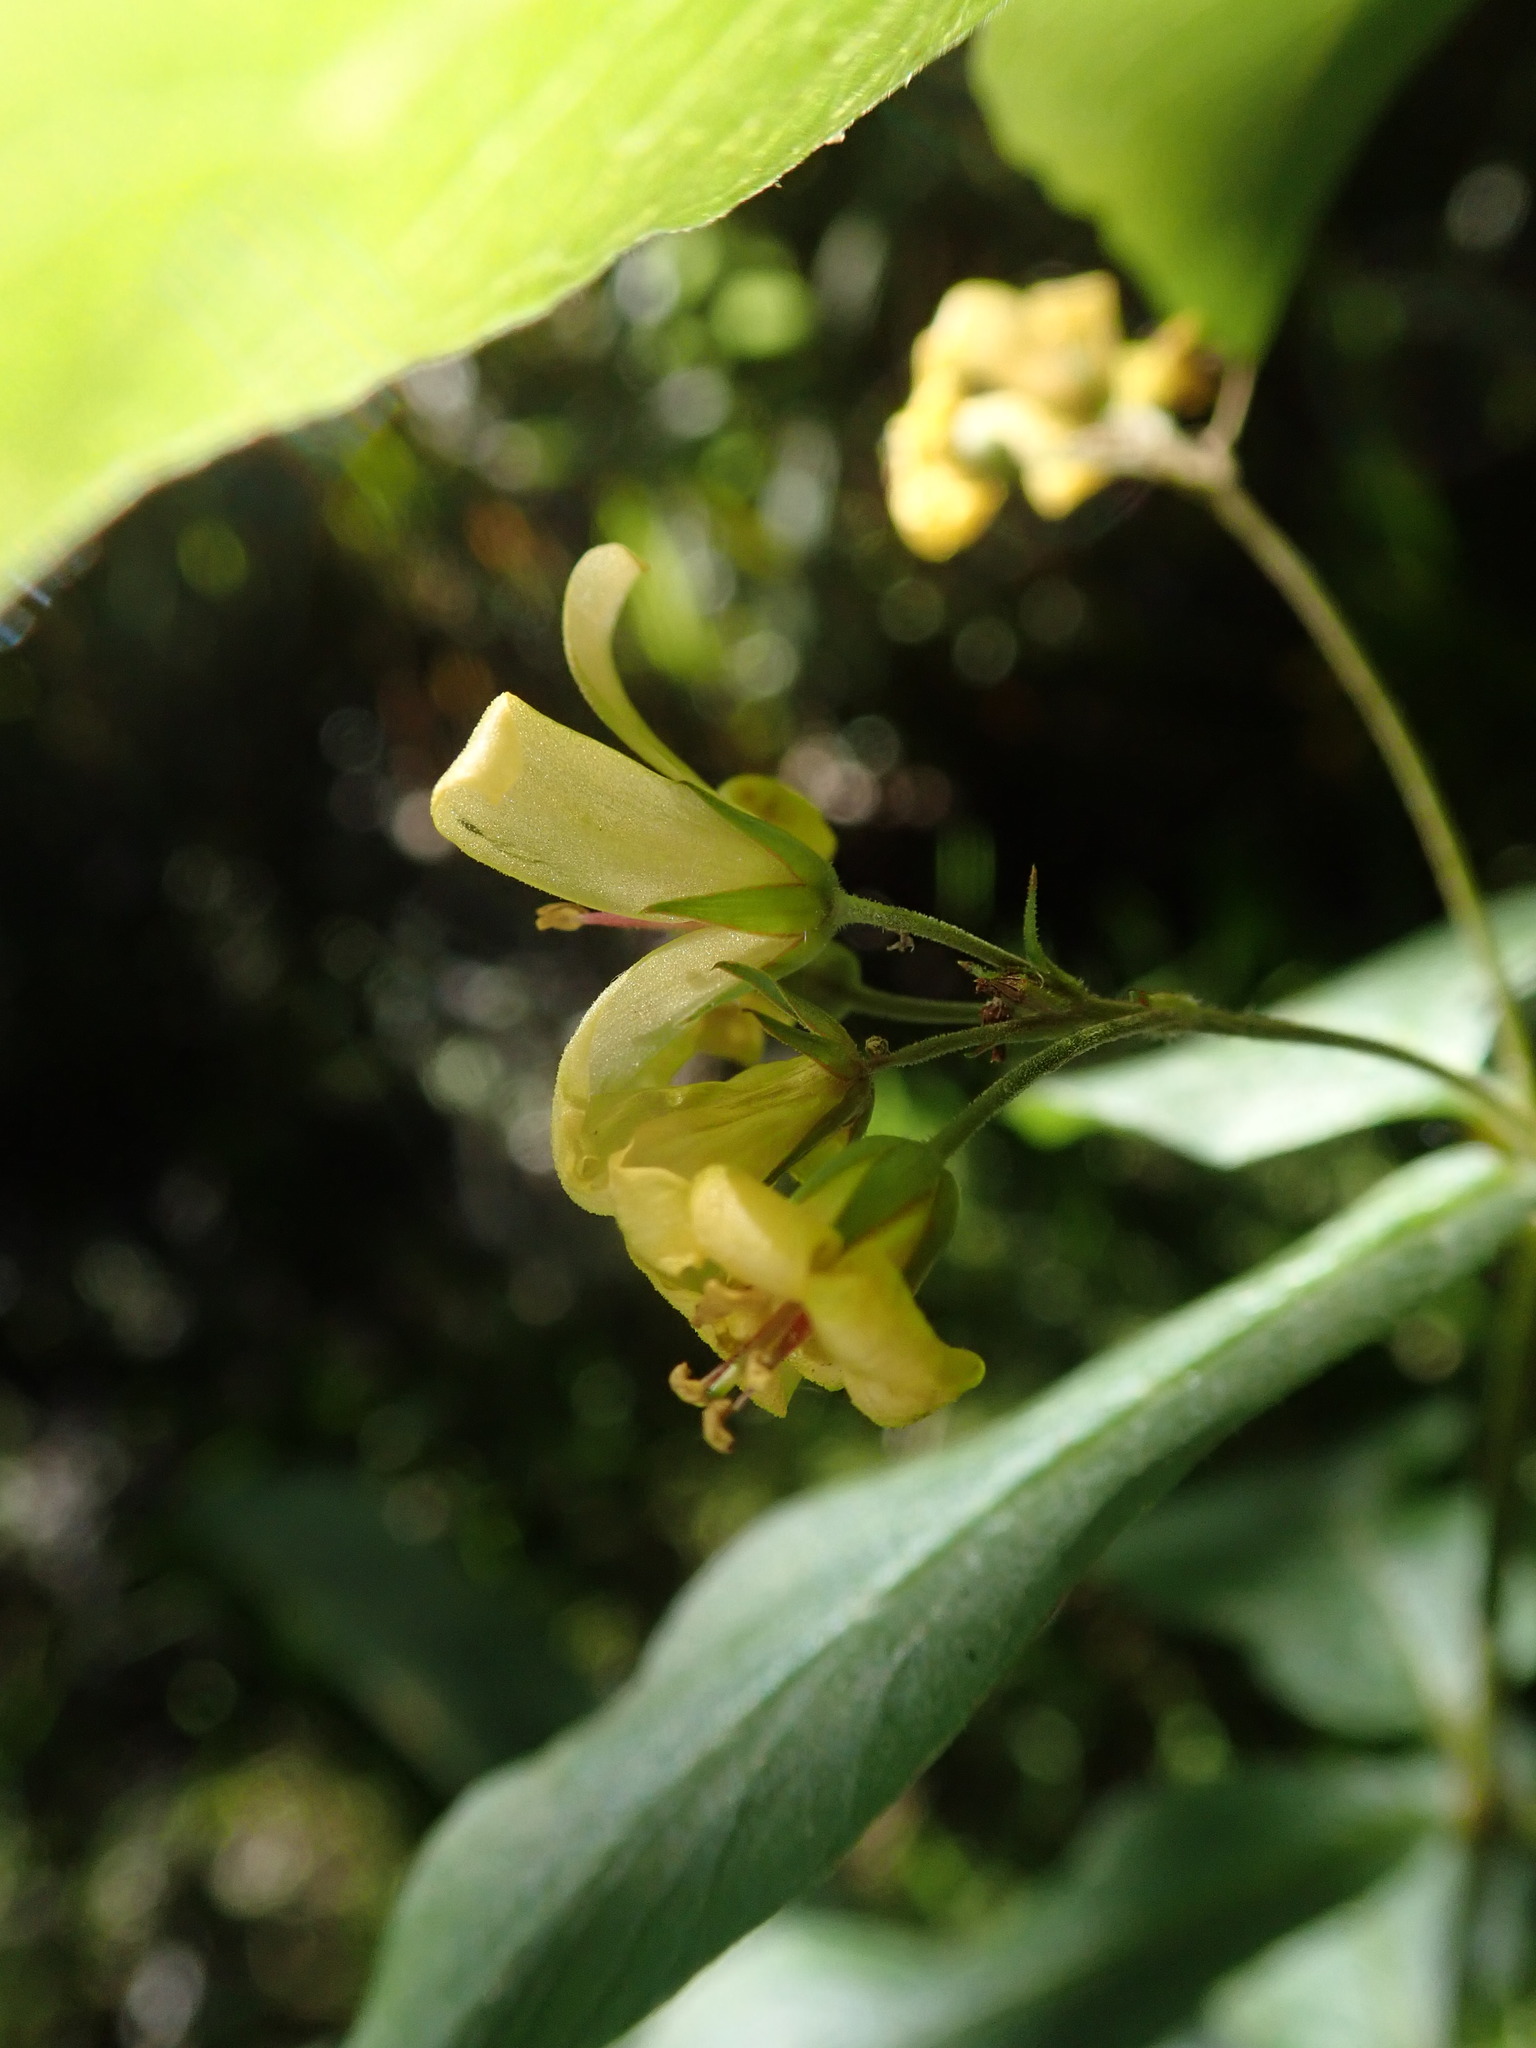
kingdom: Plantae
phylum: Tracheophyta
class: Magnoliopsida
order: Ericales
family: Primulaceae
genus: Lysimachia
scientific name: Lysimachia vulgaris
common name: Yellow loosestrife
